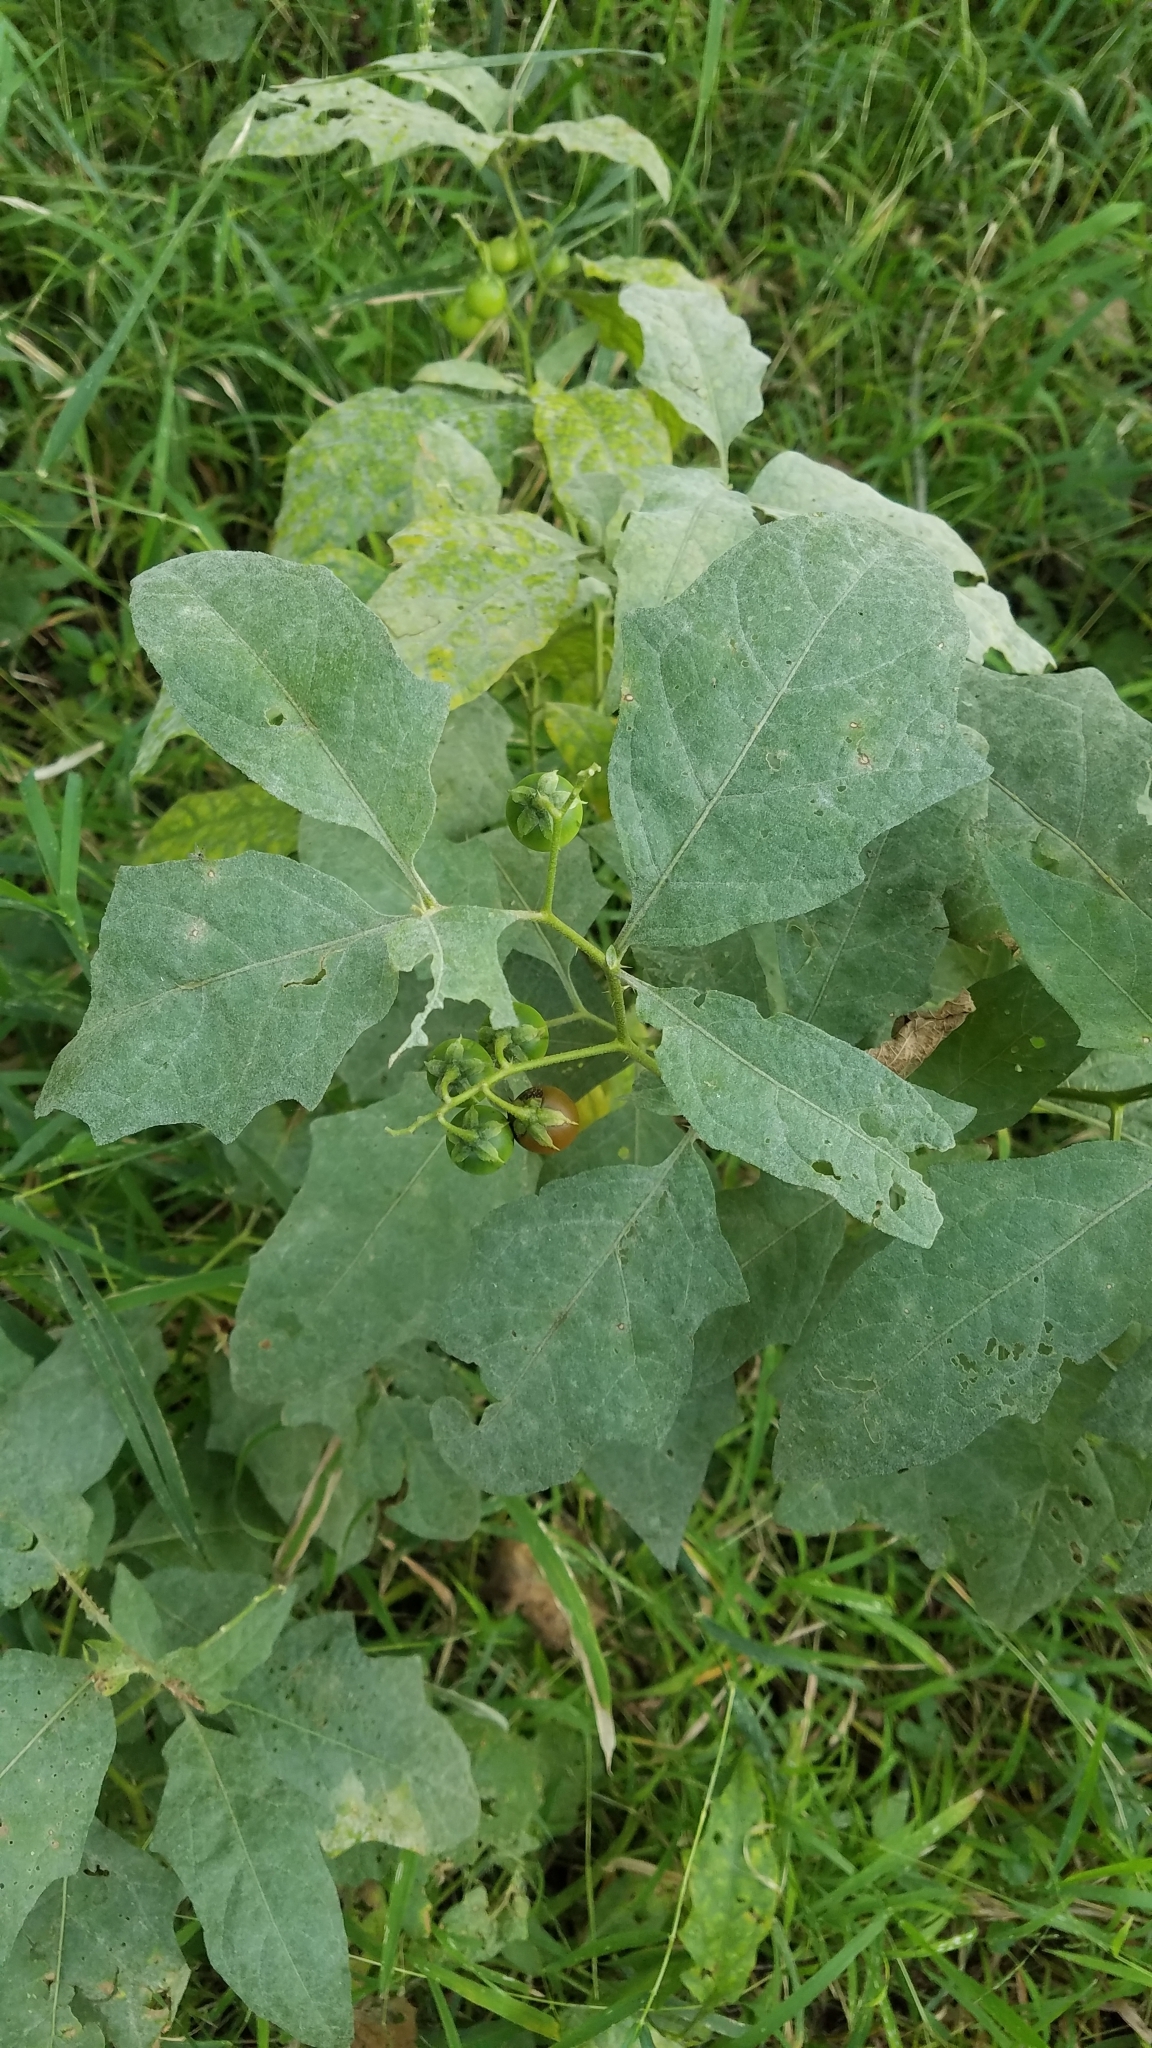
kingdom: Plantae
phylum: Tracheophyta
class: Magnoliopsida
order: Solanales
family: Solanaceae
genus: Solanum
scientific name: Solanum carolinense
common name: Horse-nettle
